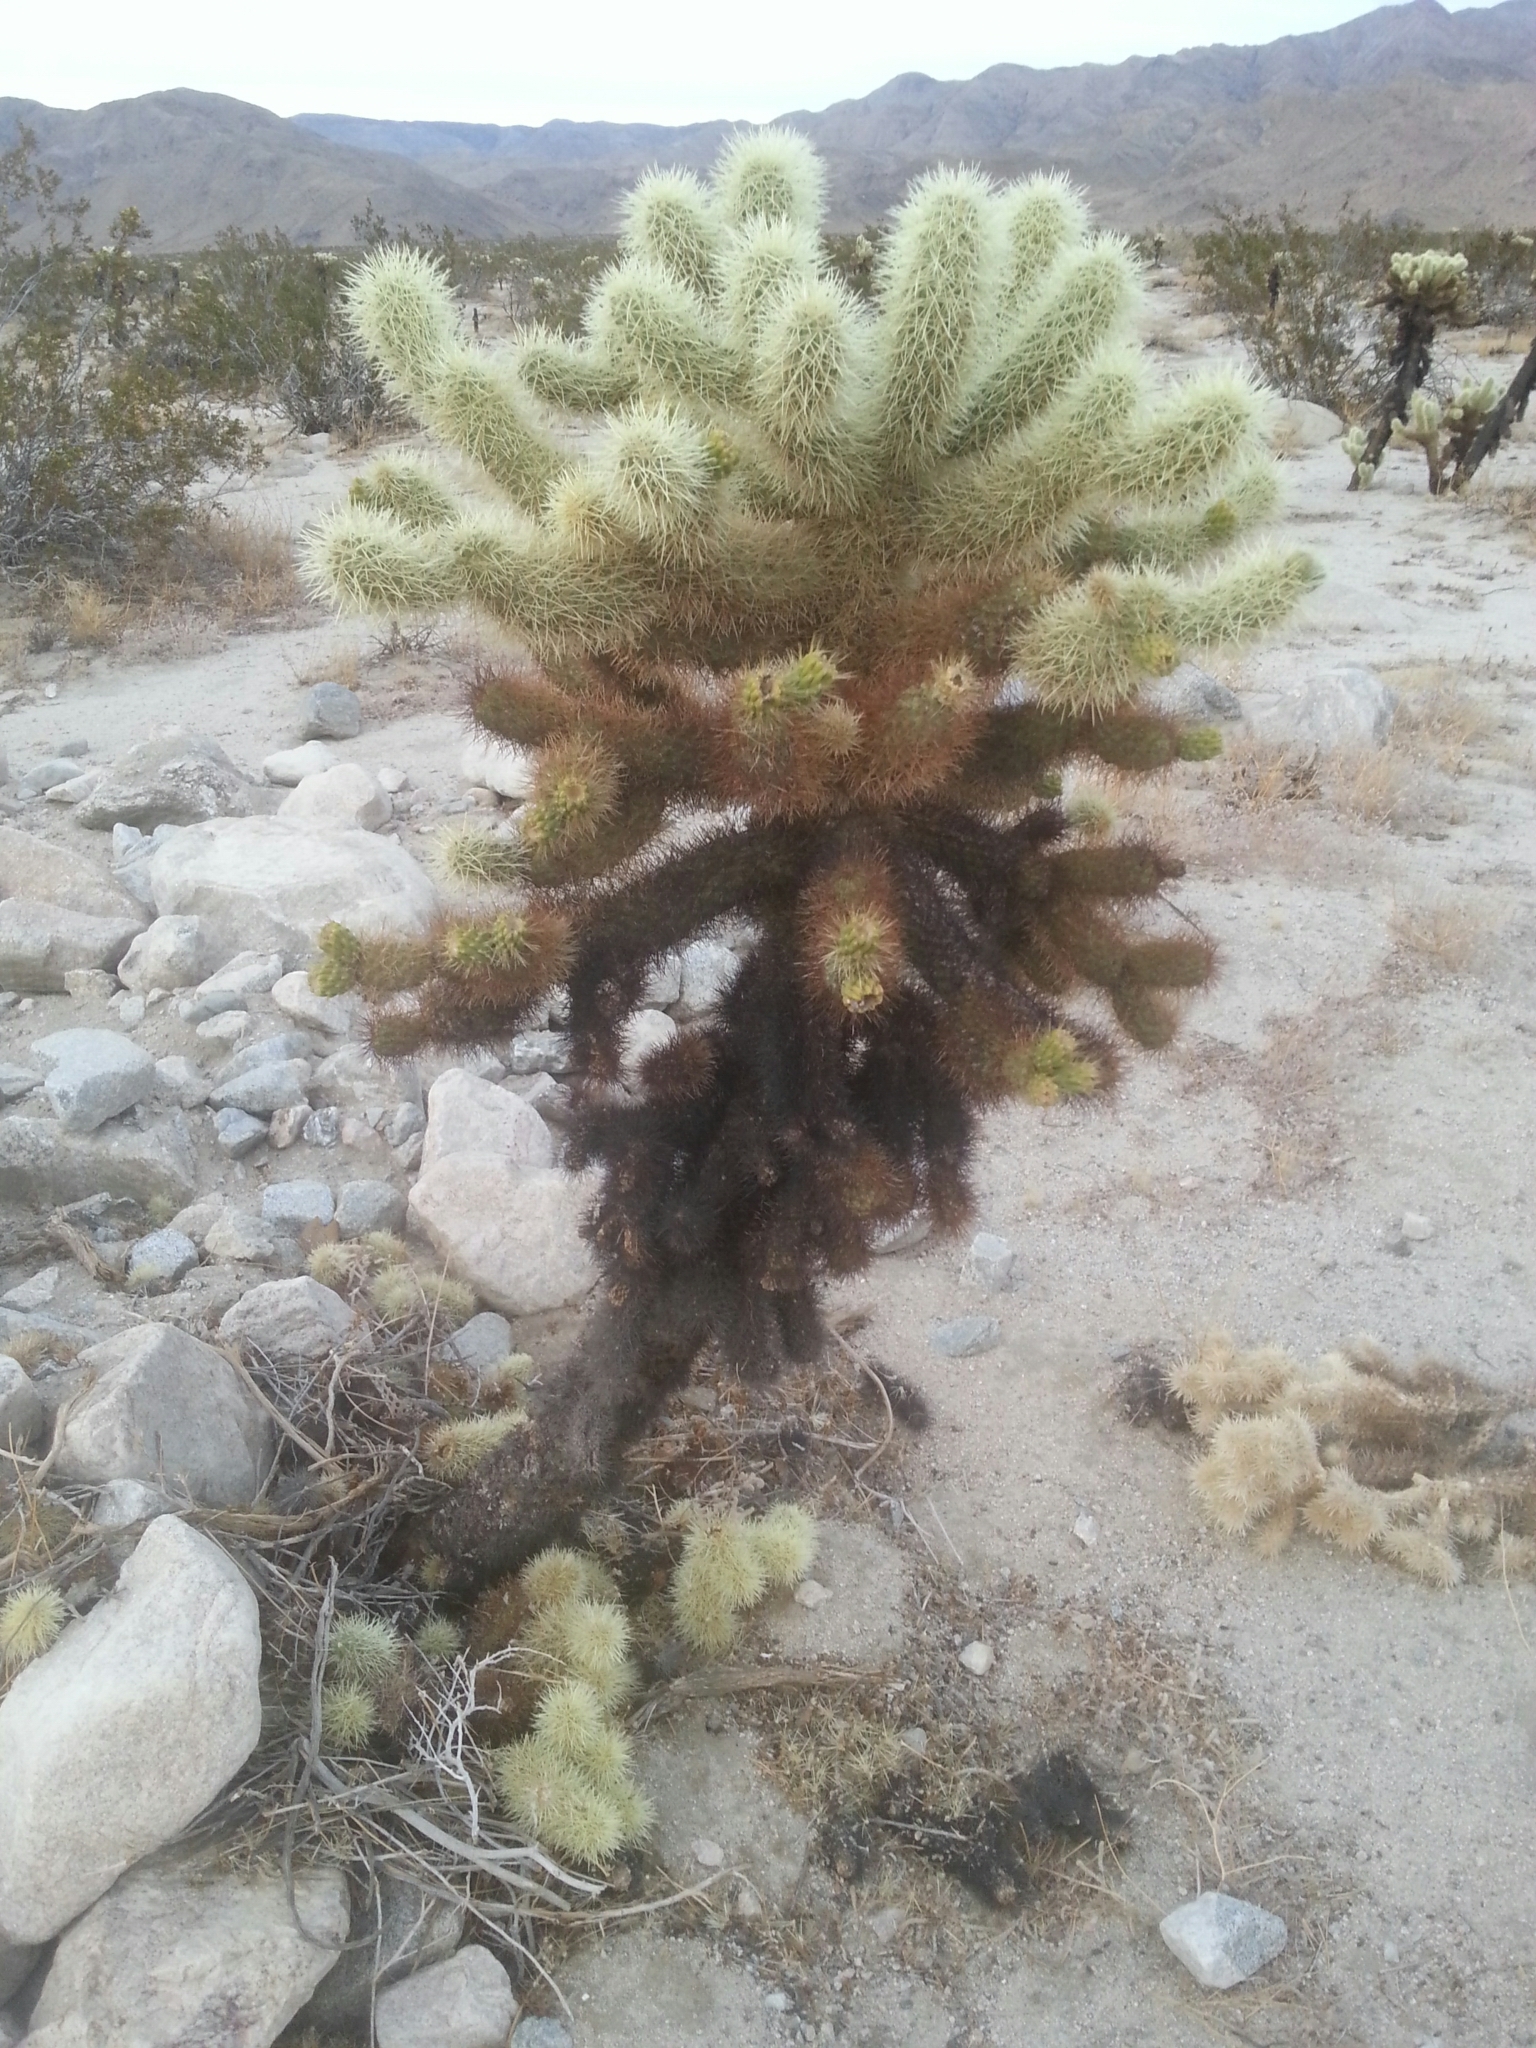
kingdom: Plantae
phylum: Tracheophyta
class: Magnoliopsida
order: Caryophyllales
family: Cactaceae
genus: Cylindropuntia
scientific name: Cylindropuntia fosbergii
